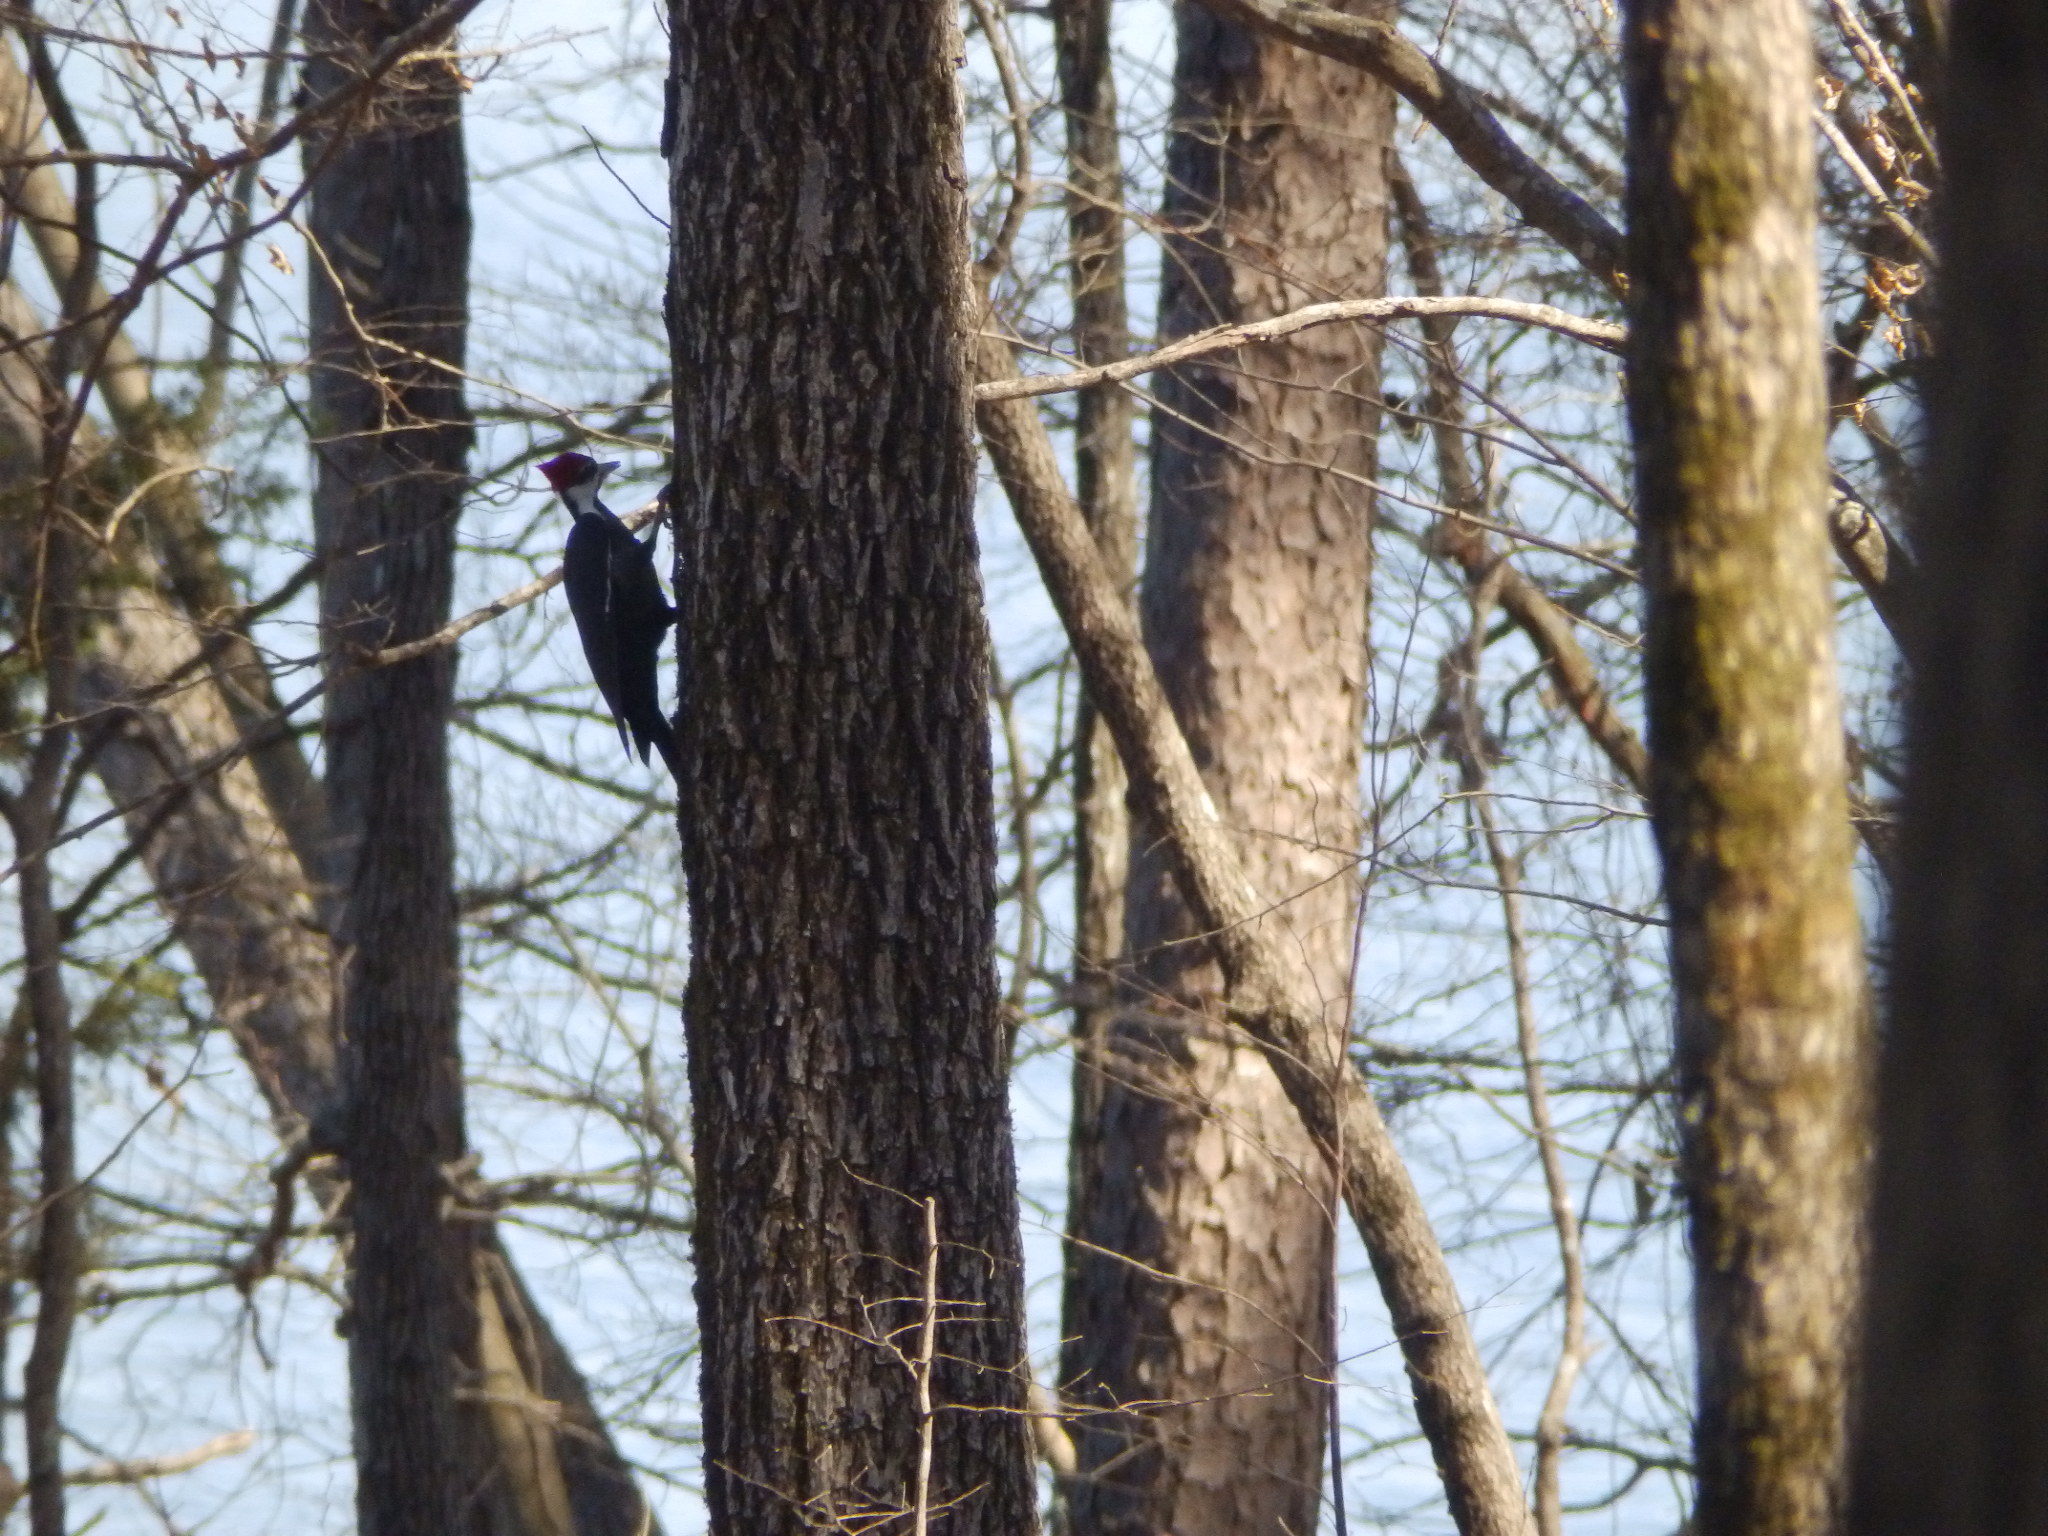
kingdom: Animalia
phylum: Chordata
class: Aves
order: Piciformes
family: Picidae
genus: Dryocopus
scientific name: Dryocopus pileatus
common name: Pileated woodpecker
